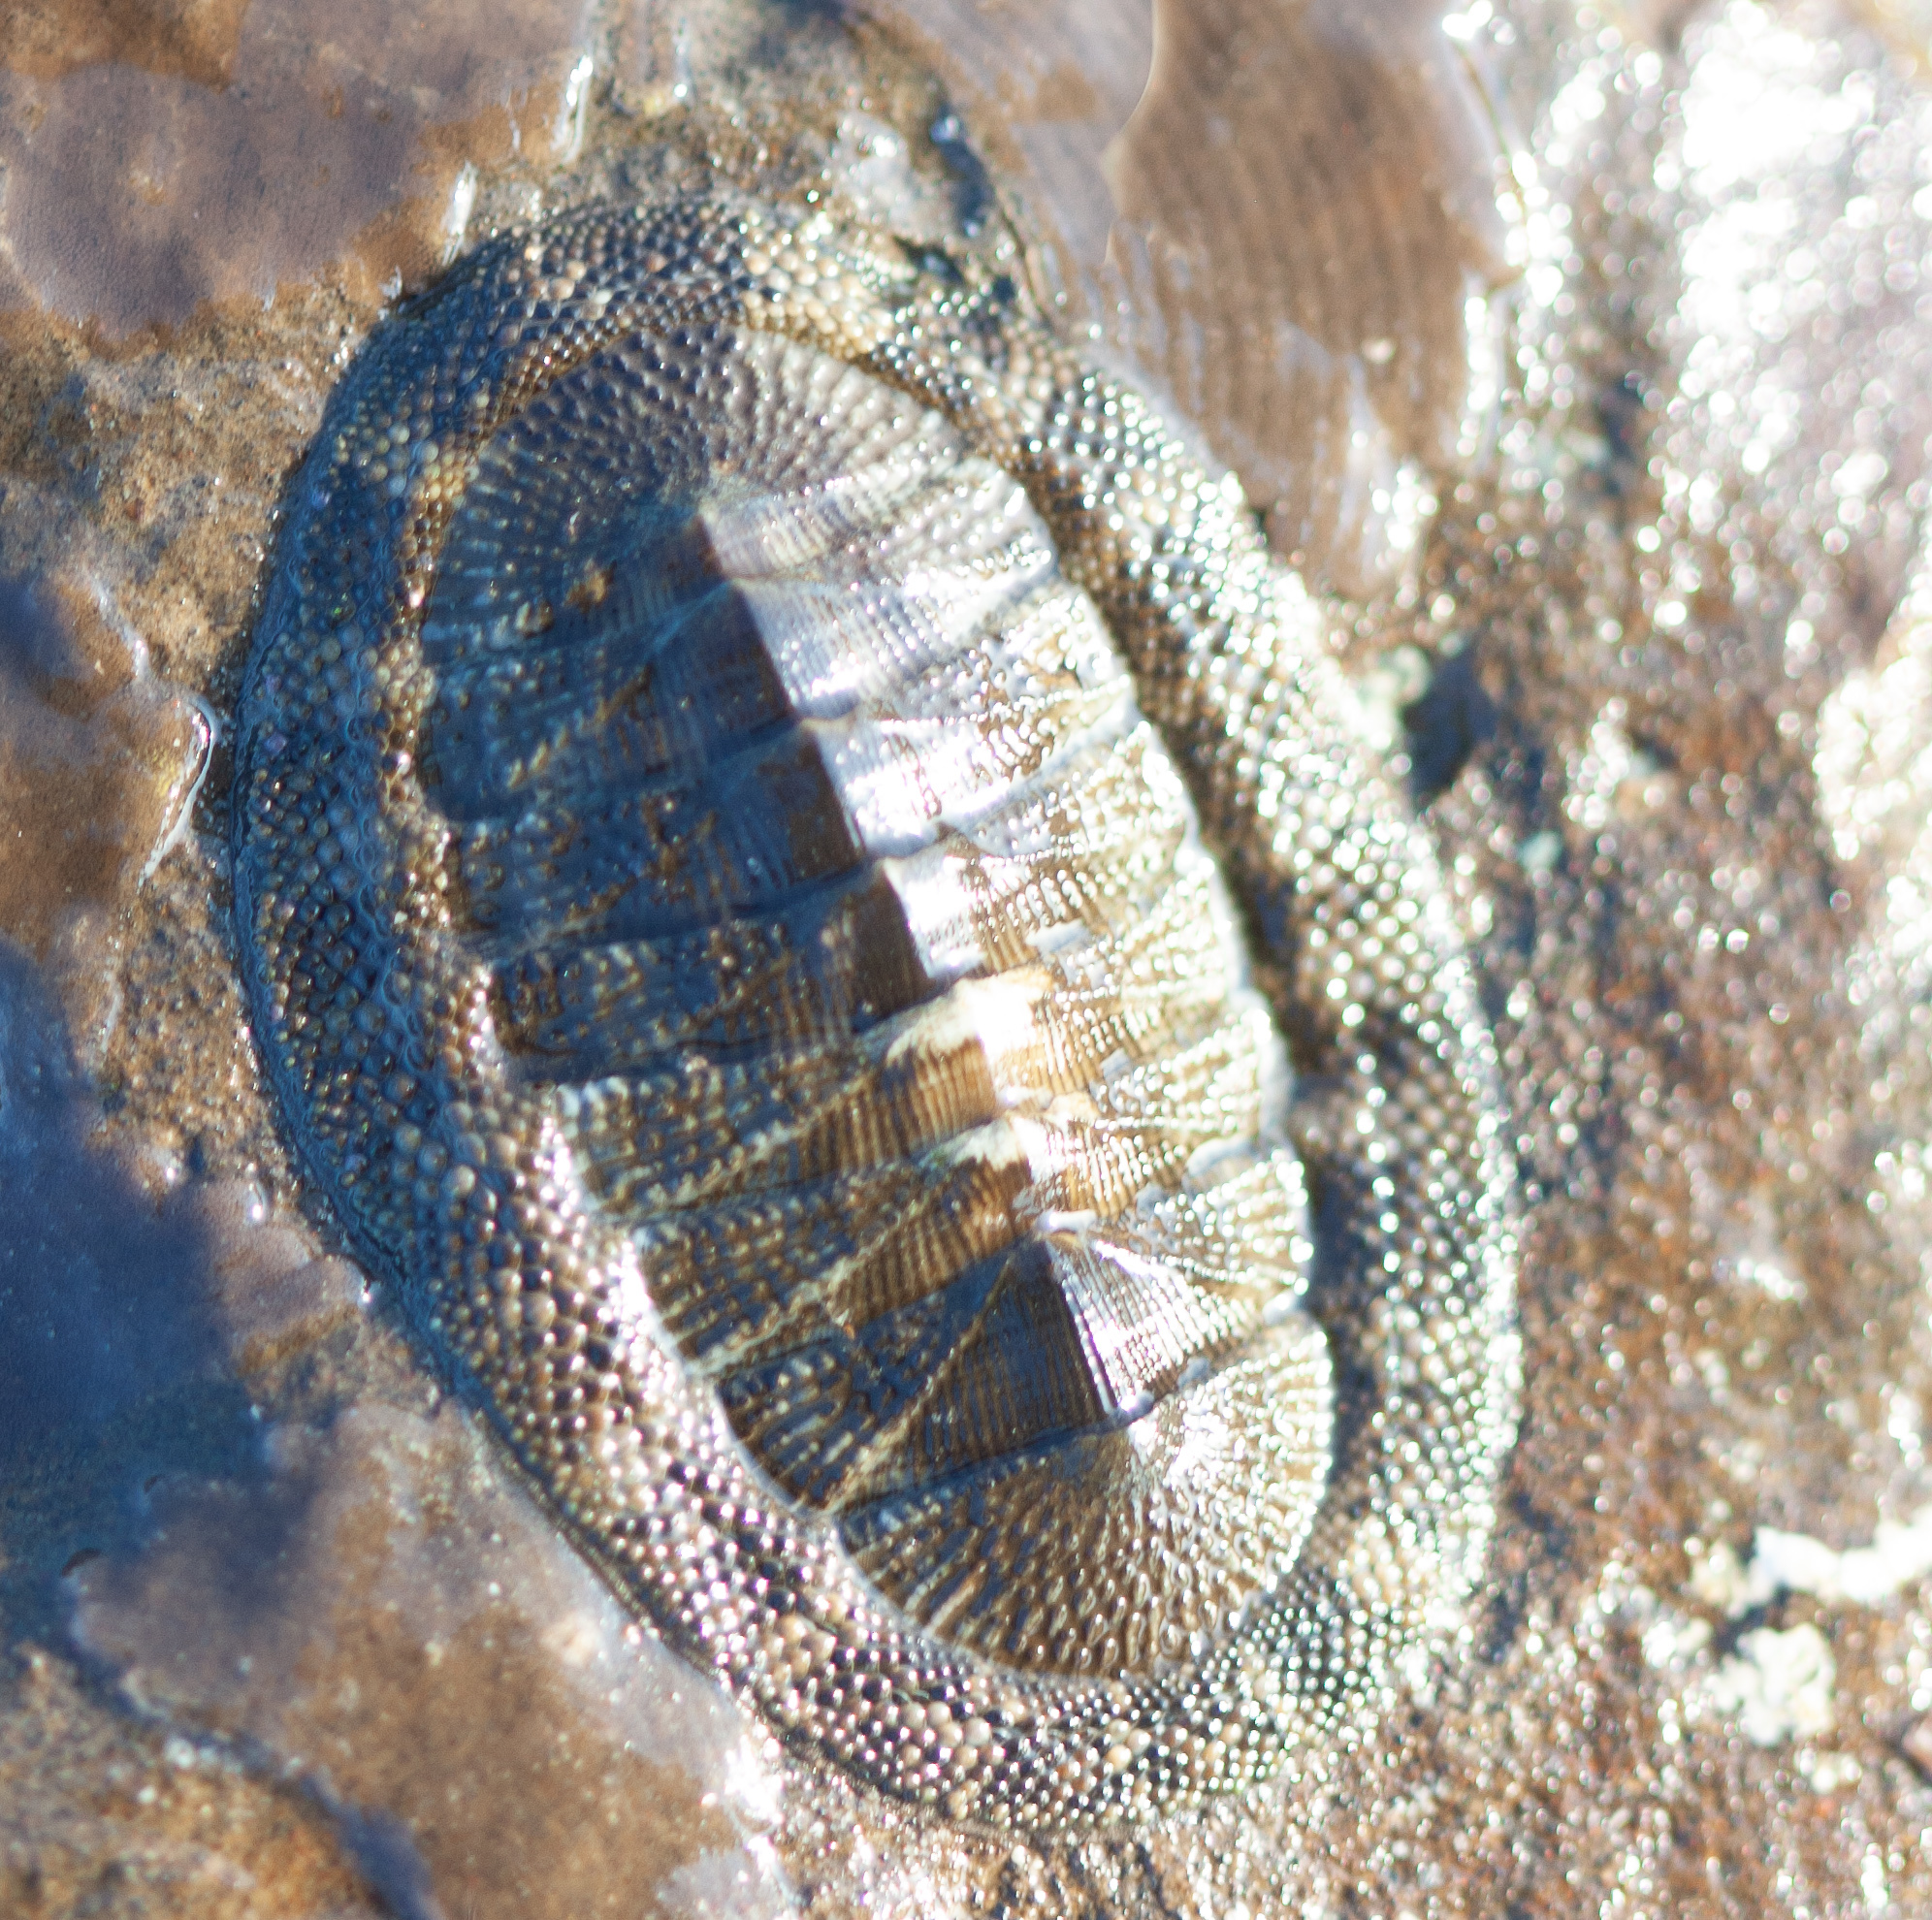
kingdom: Animalia
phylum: Mollusca
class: Polyplacophora
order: Chitonida
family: Chitonidae
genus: Chiton
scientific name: Chiton stokesii
